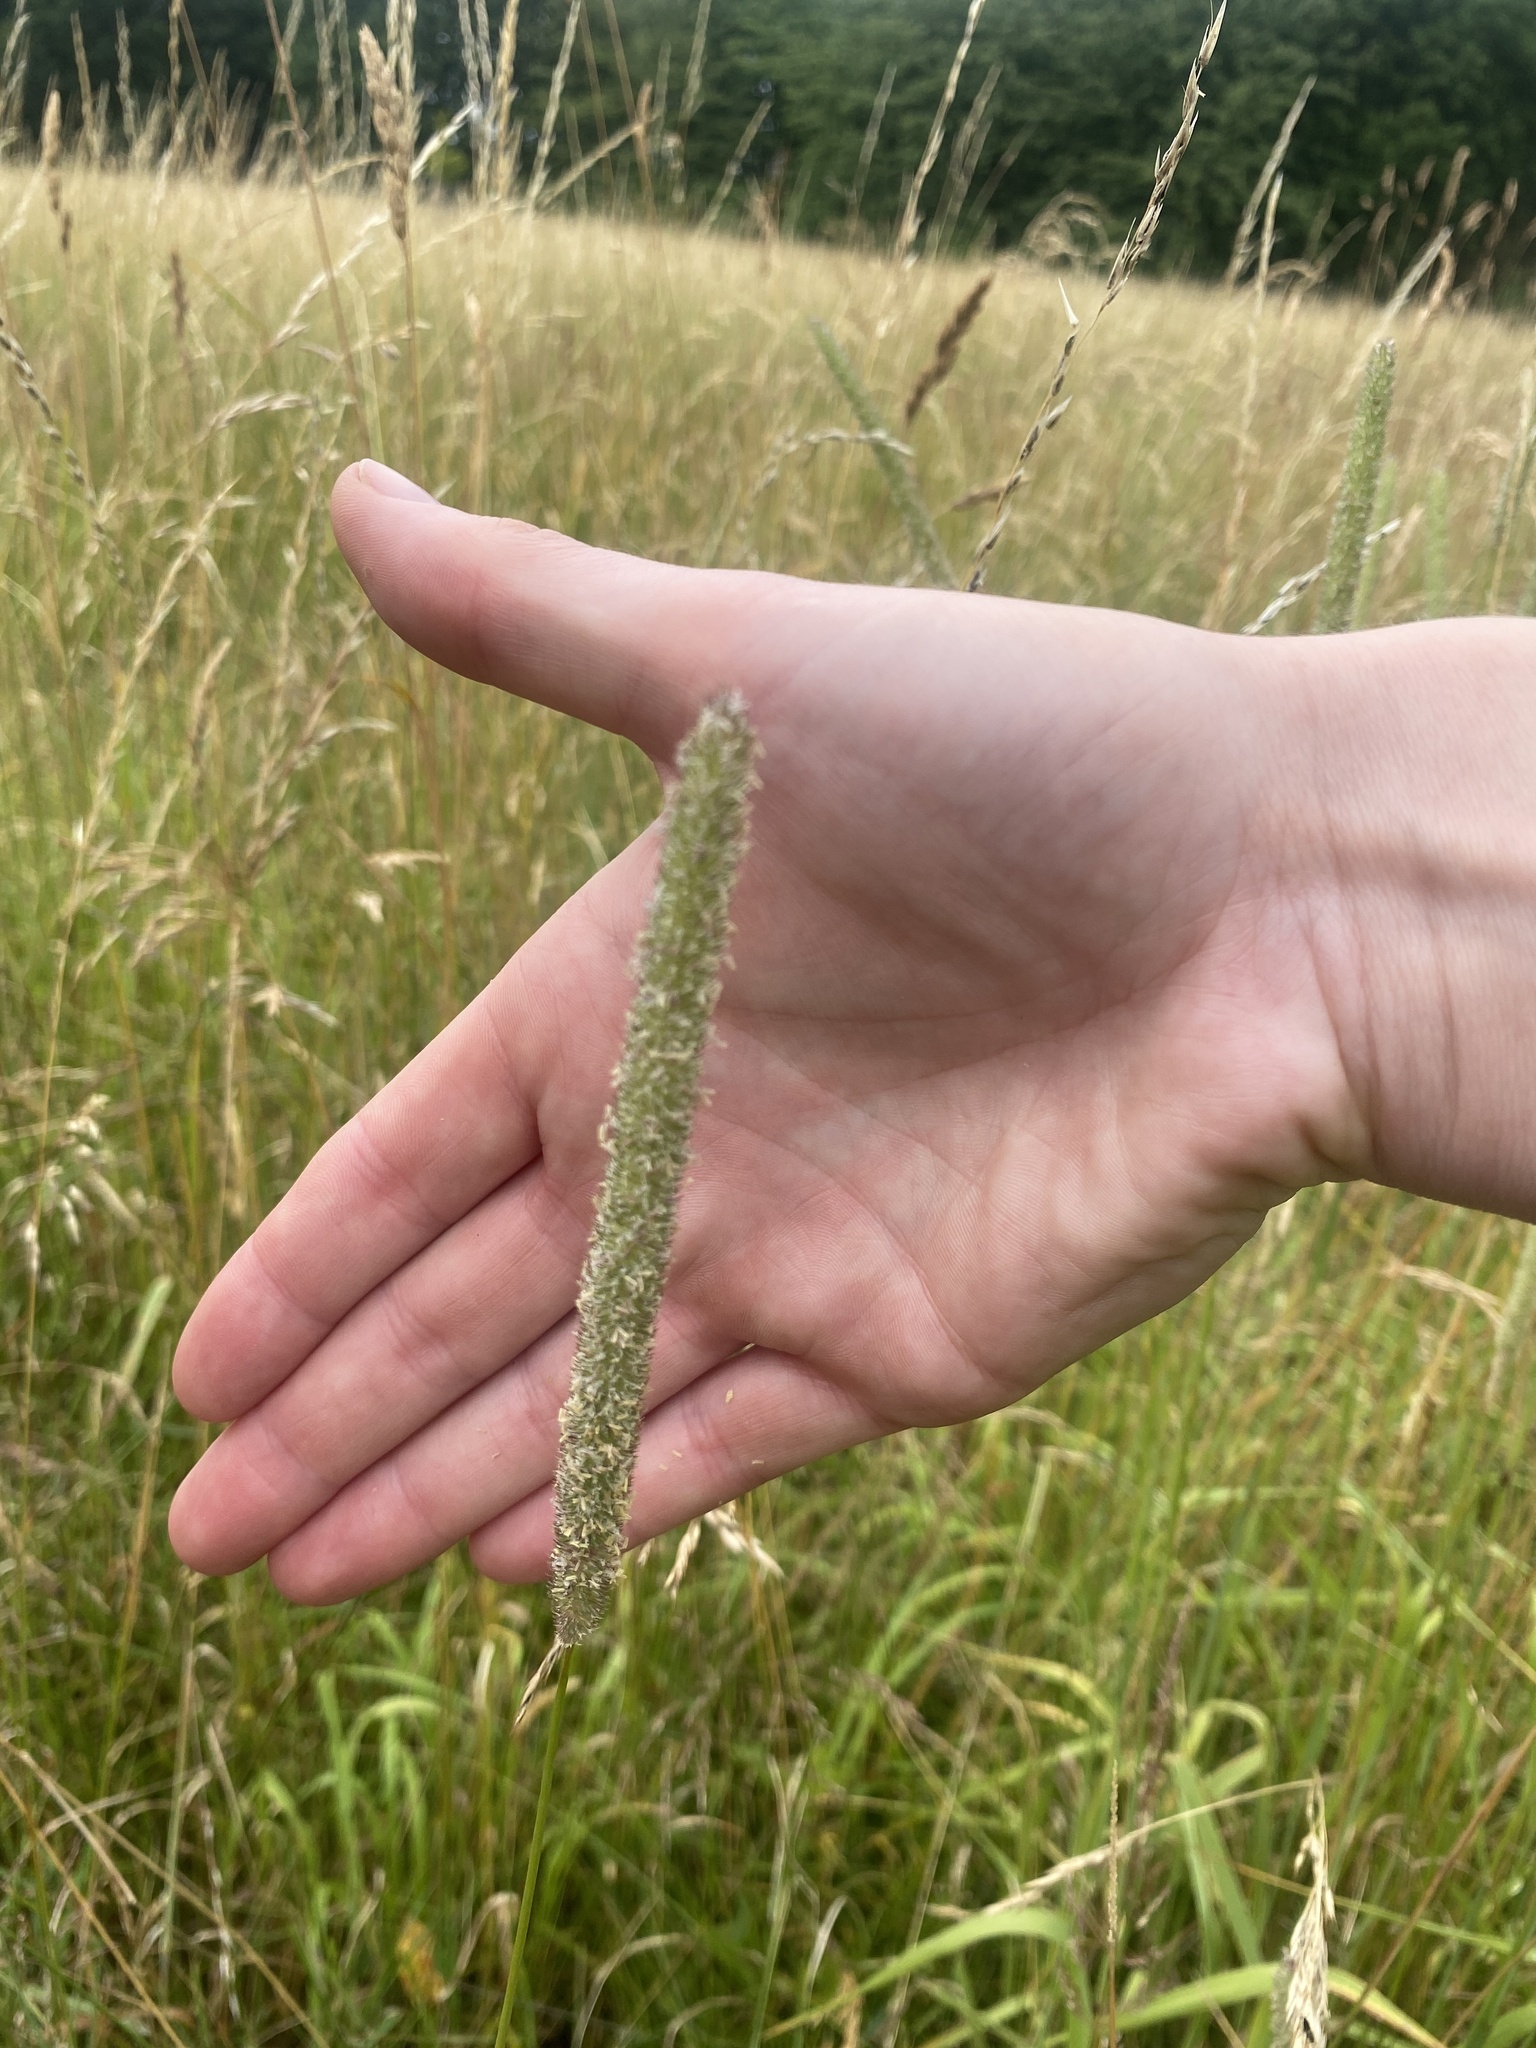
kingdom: Plantae
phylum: Tracheophyta
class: Liliopsida
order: Poales
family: Poaceae
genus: Phleum
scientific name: Phleum pratense
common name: Timothy grass
